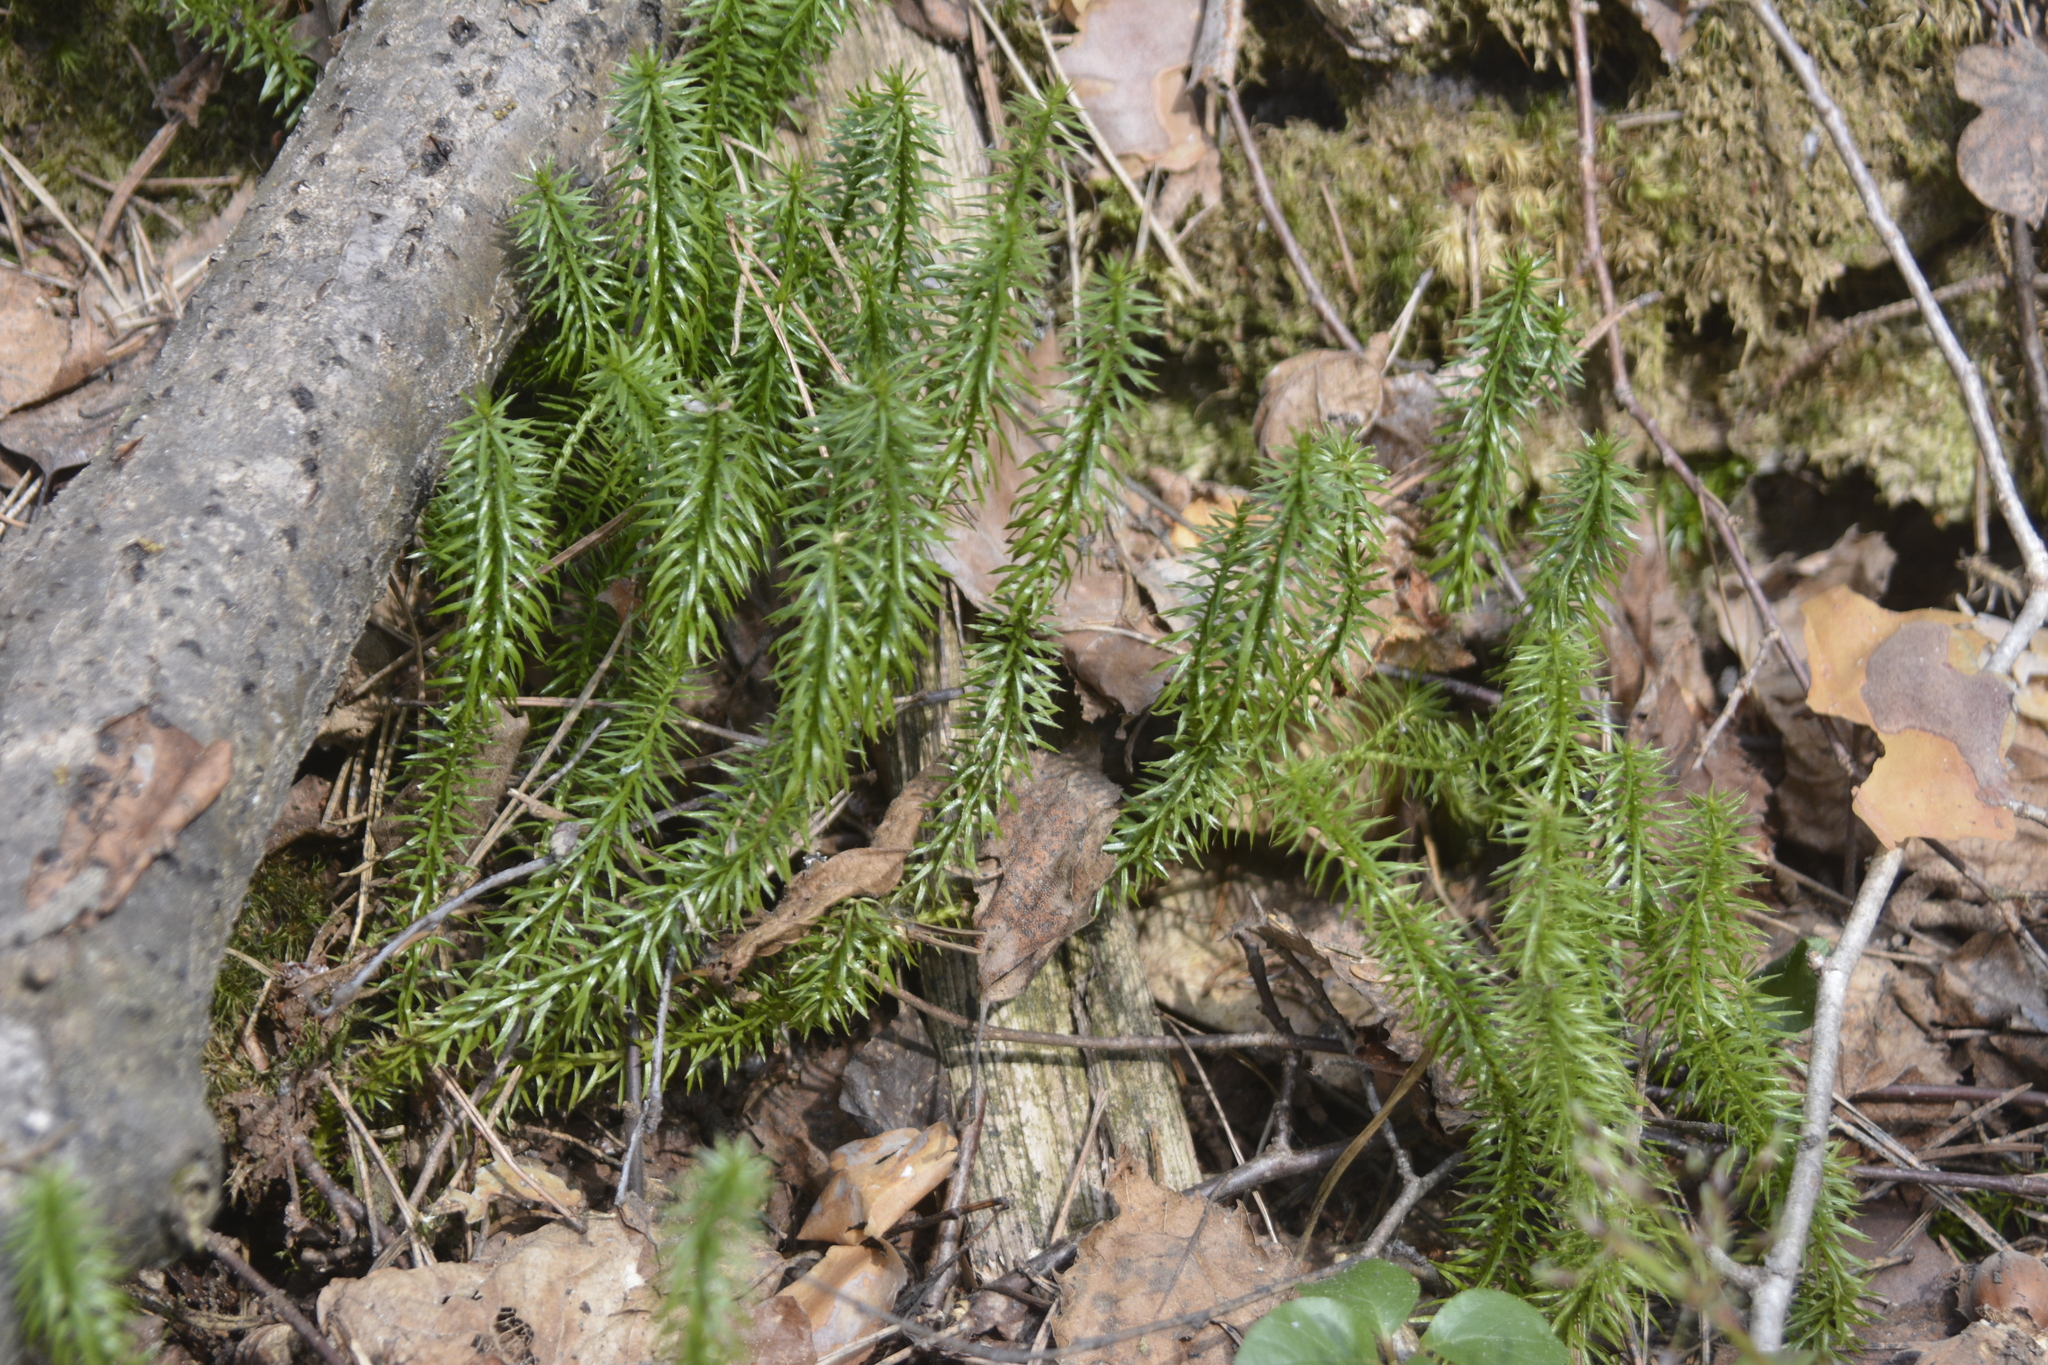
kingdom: Plantae
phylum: Tracheophyta
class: Lycopodiopsida
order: Lycopodiales
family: Lycopodiaceae
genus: Spinulum
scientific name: Spinulum annotinum
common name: Interrupted club-moss
